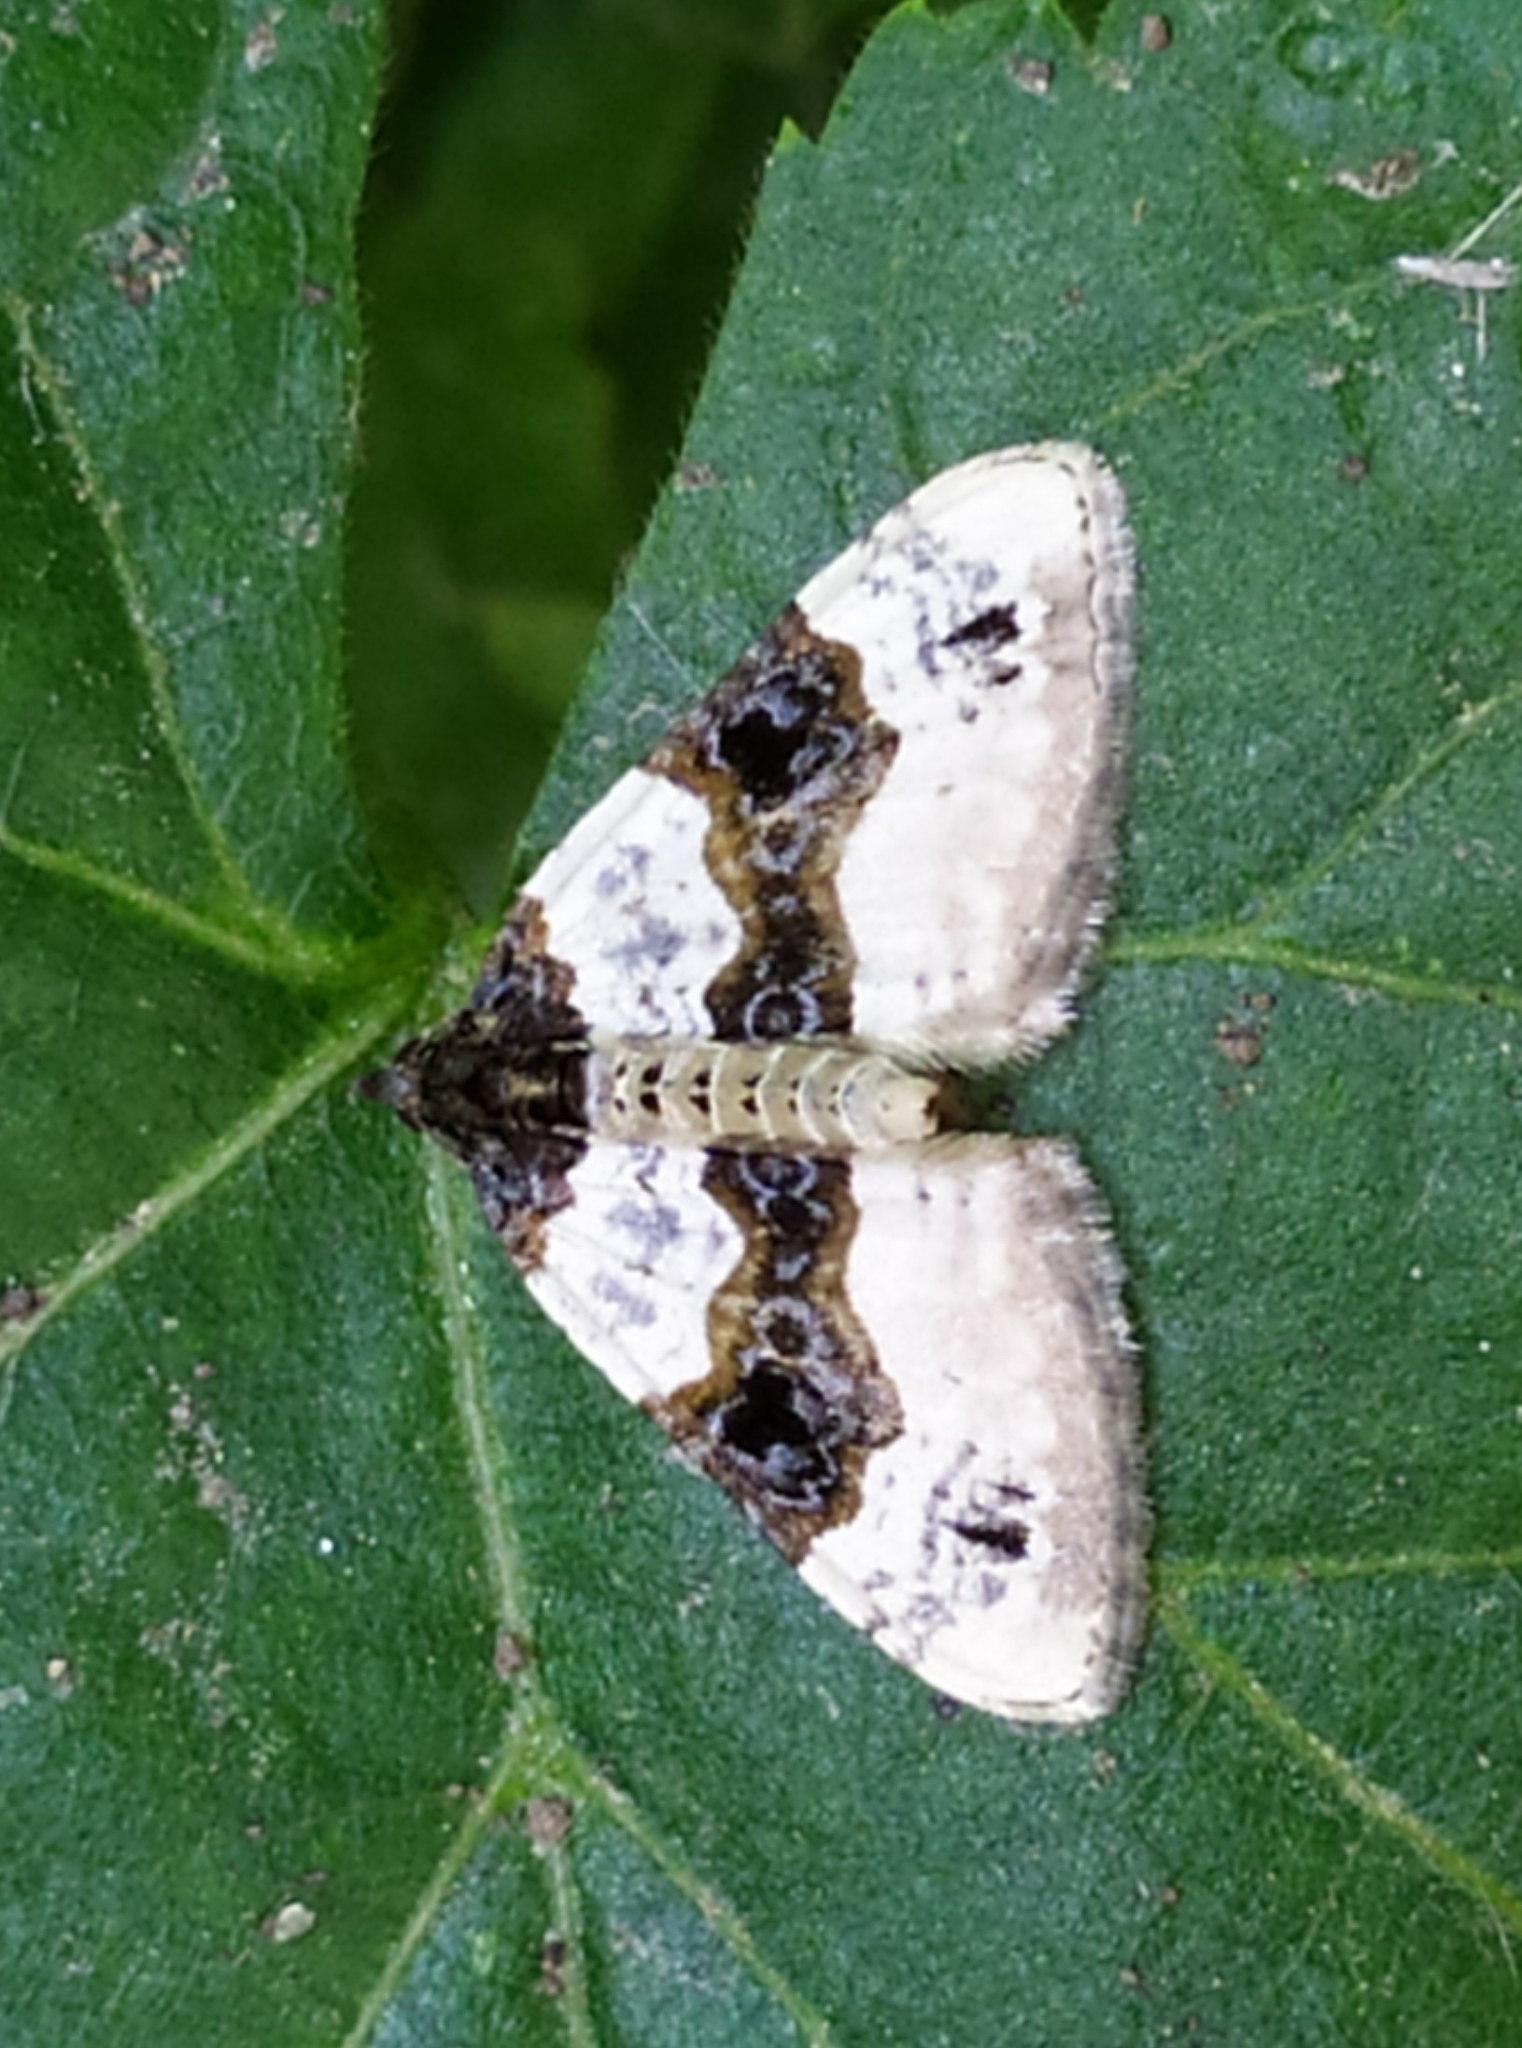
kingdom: Animalia
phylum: Arthropoda
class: Insecta
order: Lepidoptera
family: Geometridae
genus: Cosmorhoe
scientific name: Cosmorhoe ocellata
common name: Purple bar
